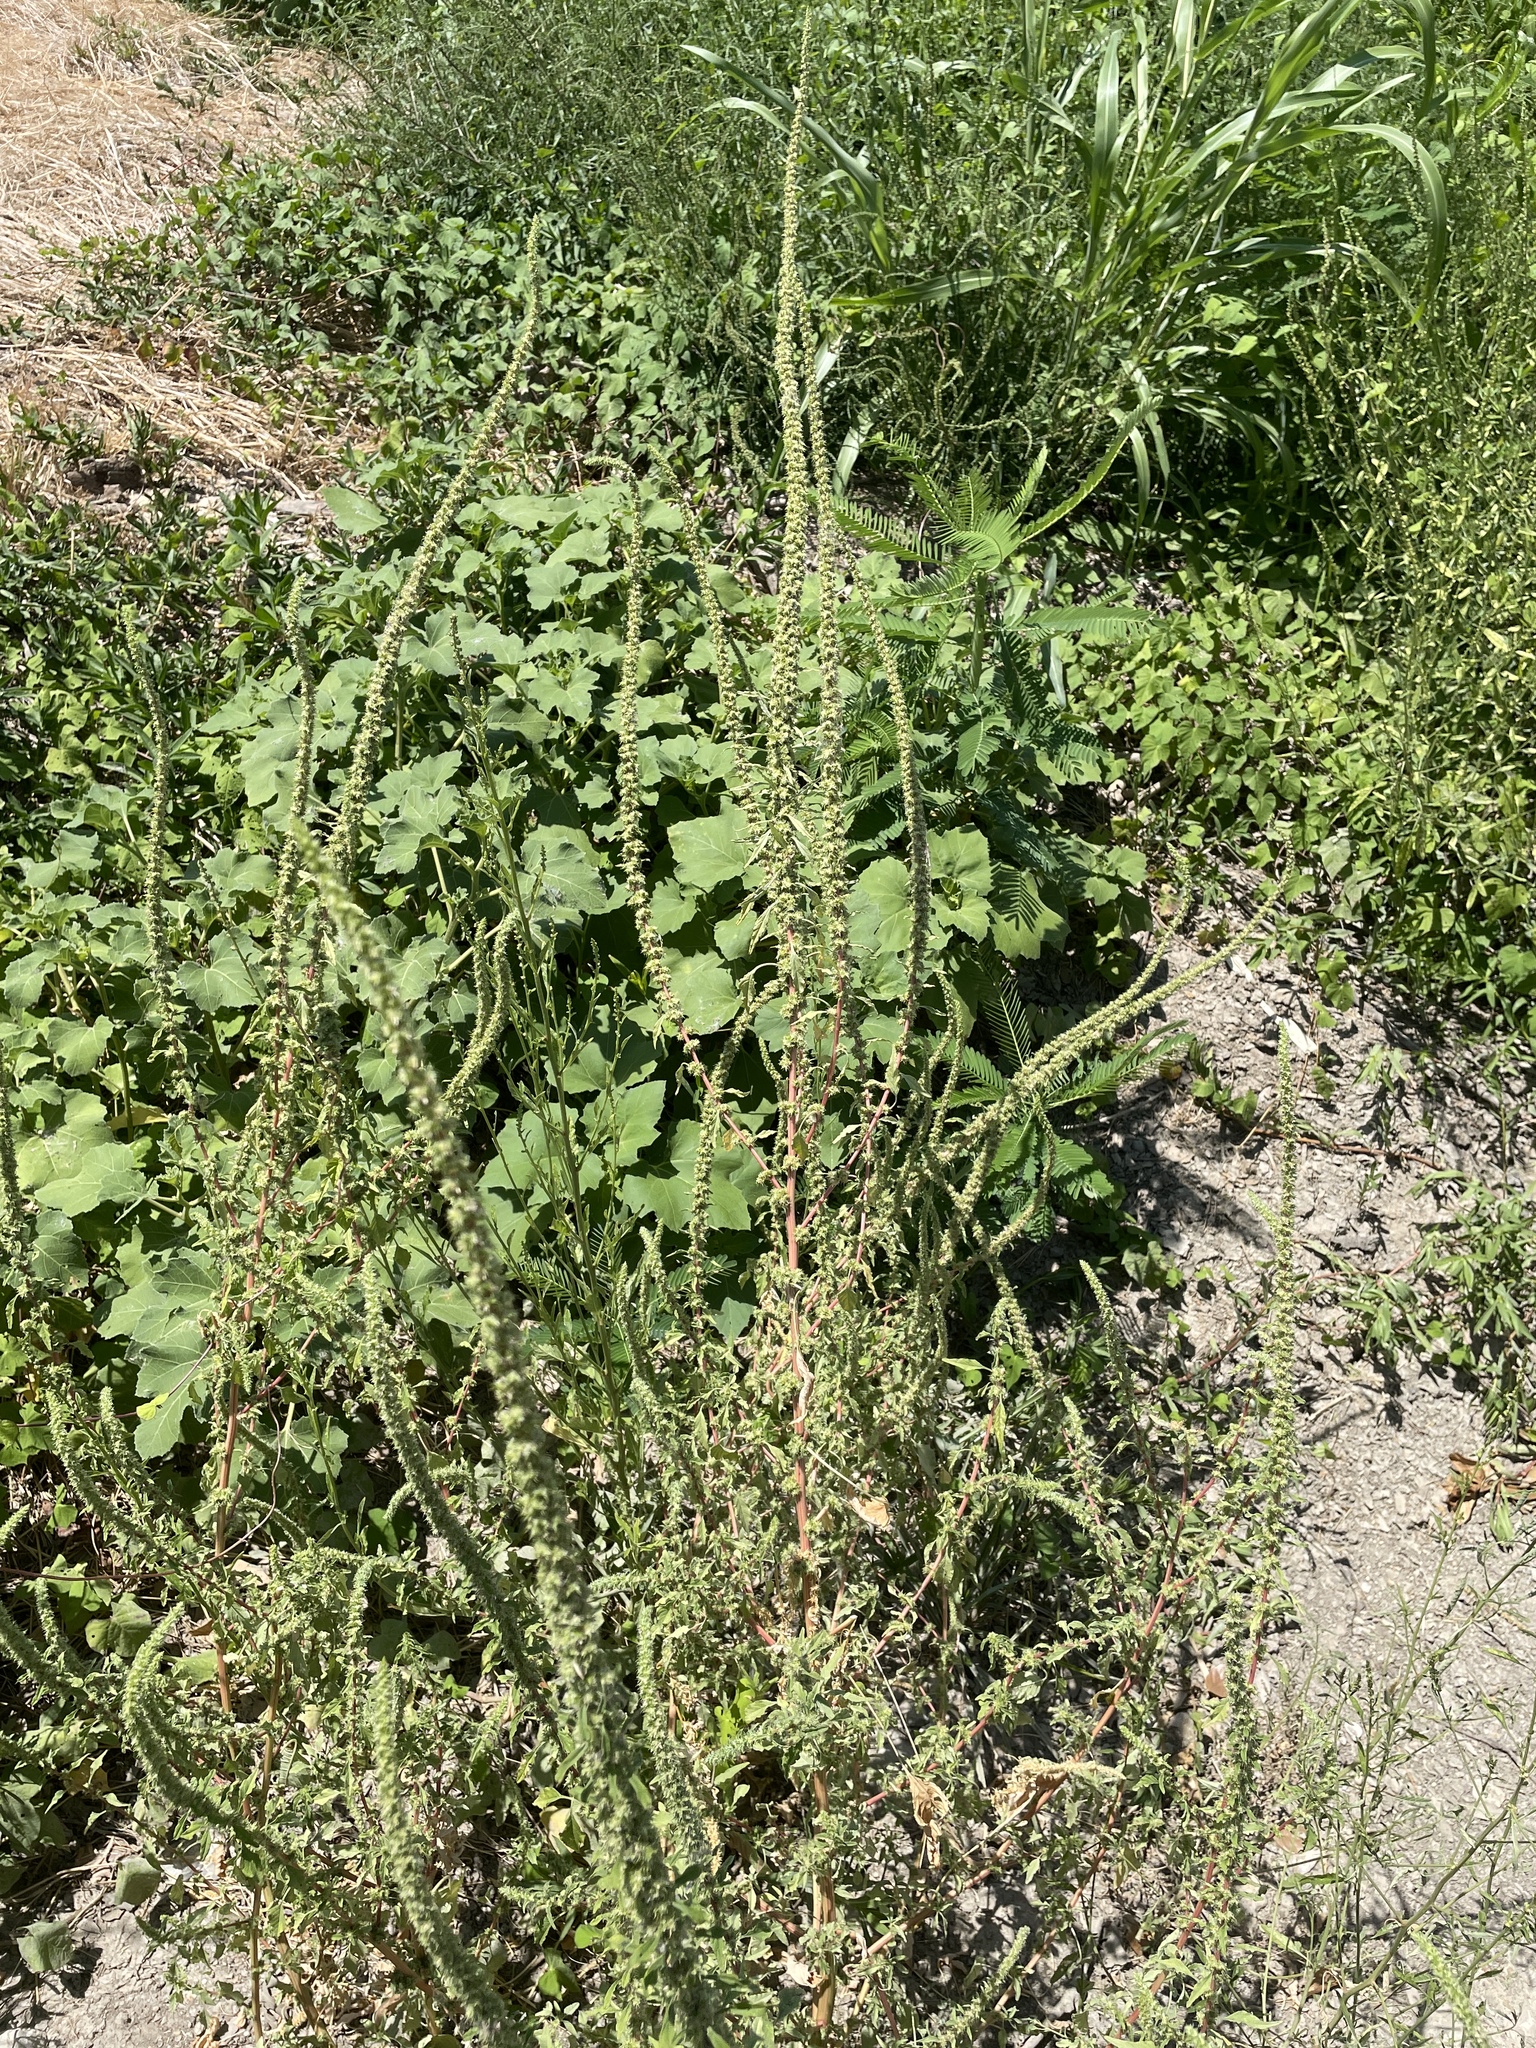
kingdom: Plantae
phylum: Tracheophyta
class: Magnoliopsida
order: Caryophyllales
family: Amaranthaceae
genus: Amaranthus
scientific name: Amaranthus palmeri
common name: Dioecious amaranth
